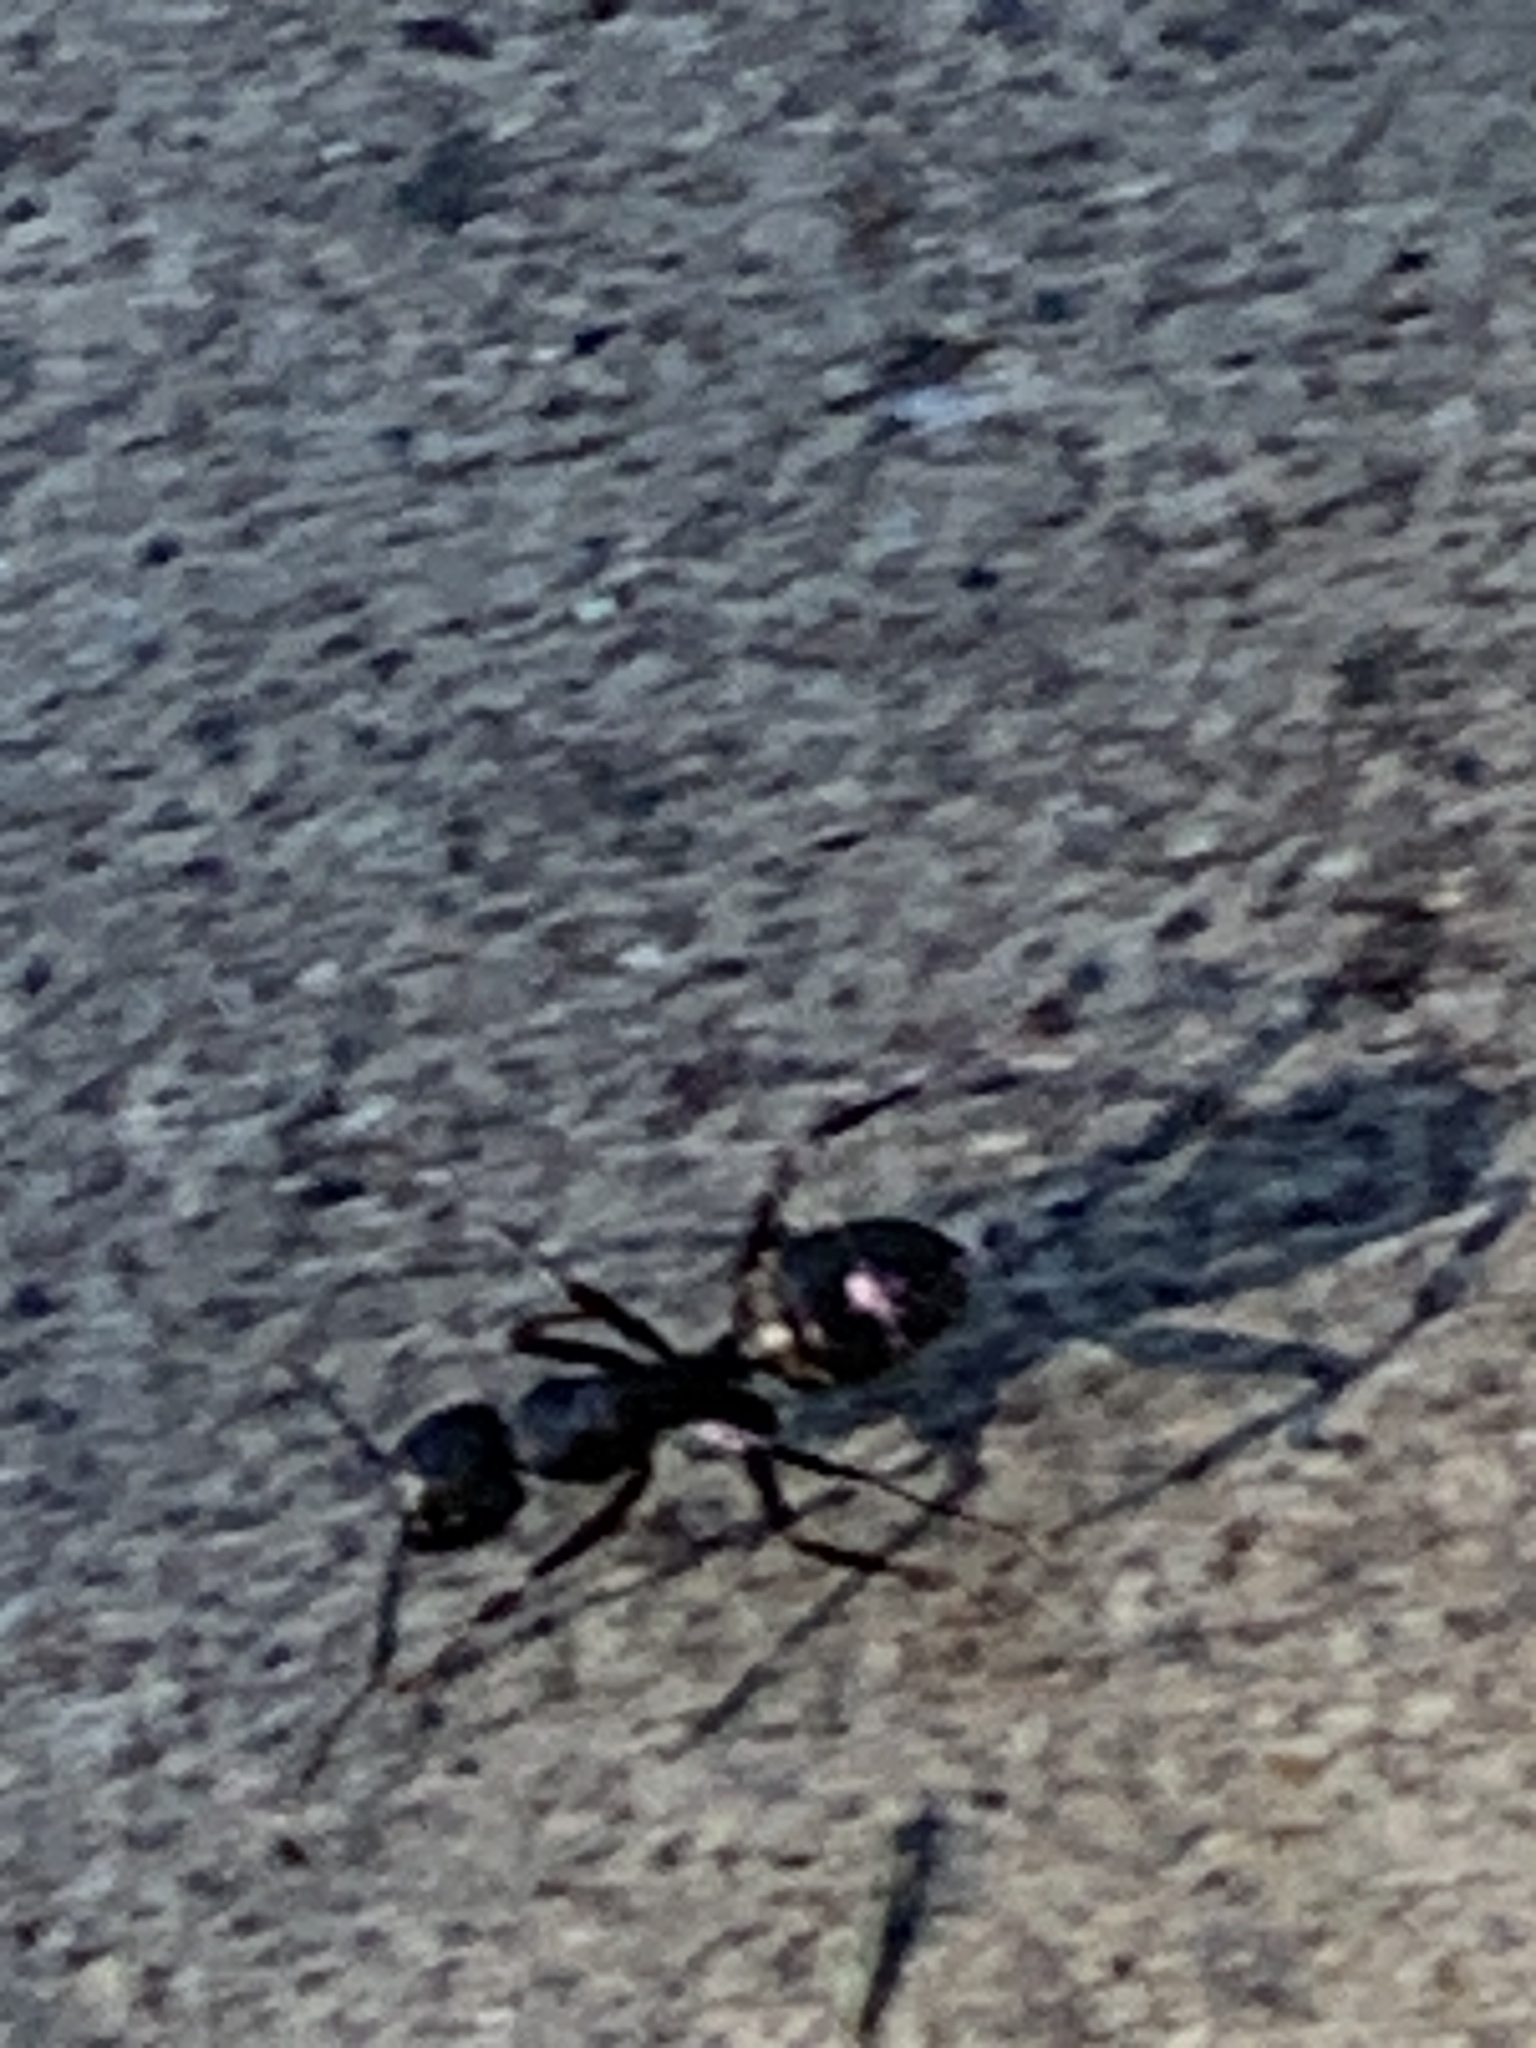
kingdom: Animalia
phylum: Arthropoda
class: Insecta
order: Hymenoptera
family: Formicidae
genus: Camponotus
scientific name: Camponotus pennsylvanicus
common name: Black carpenter ant
